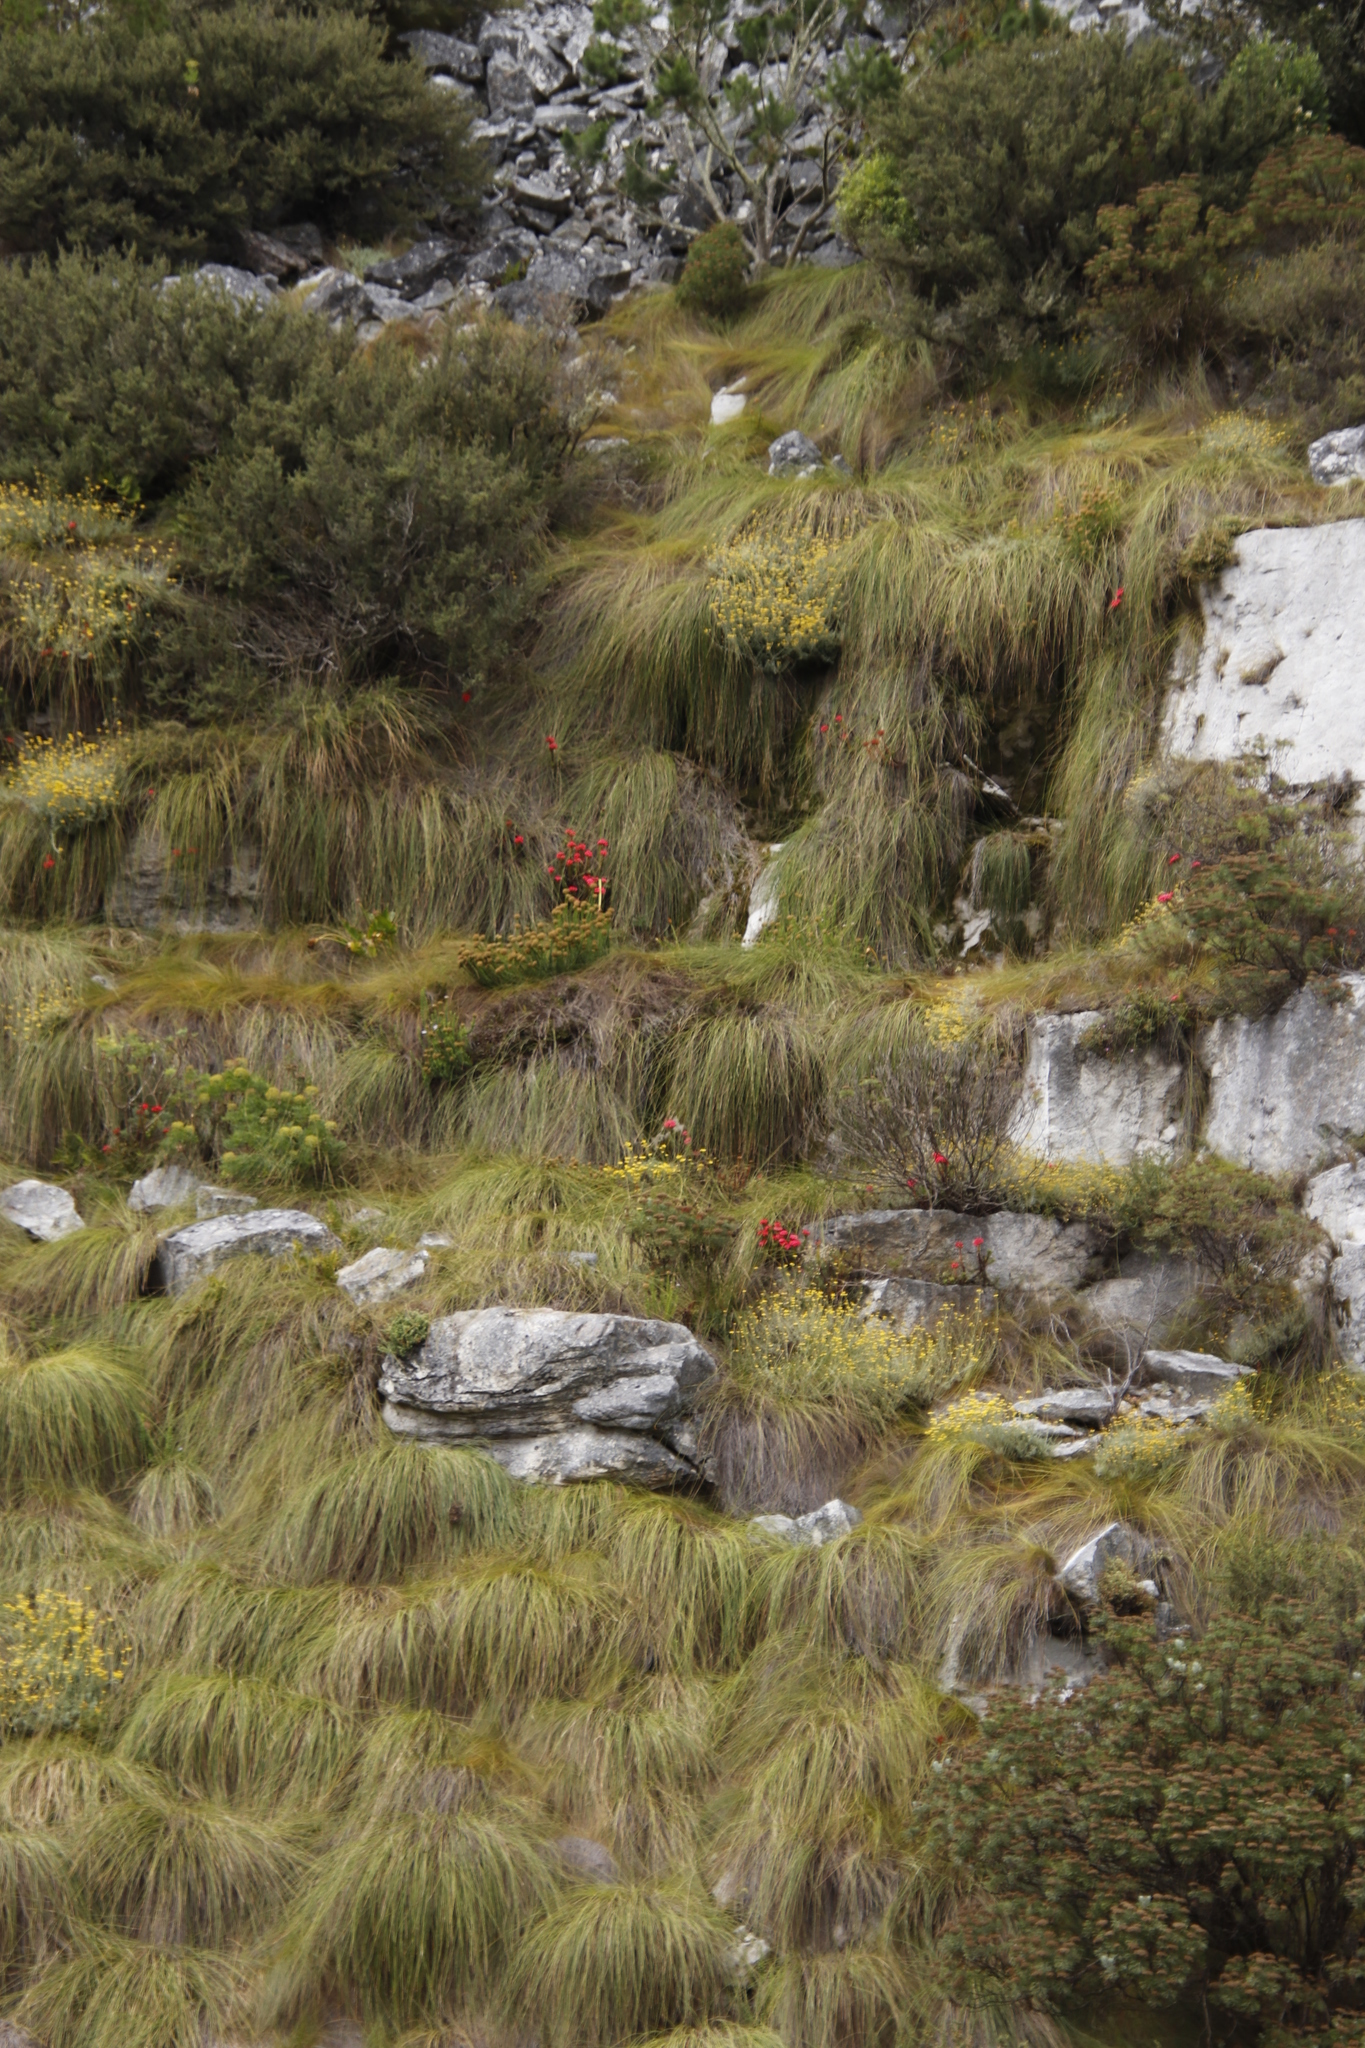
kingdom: Plantae
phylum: Tracheophyta
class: Magnoliopsida
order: Saxifragales
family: Crassulaceae
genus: Crassula
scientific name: Crassula coccinea
